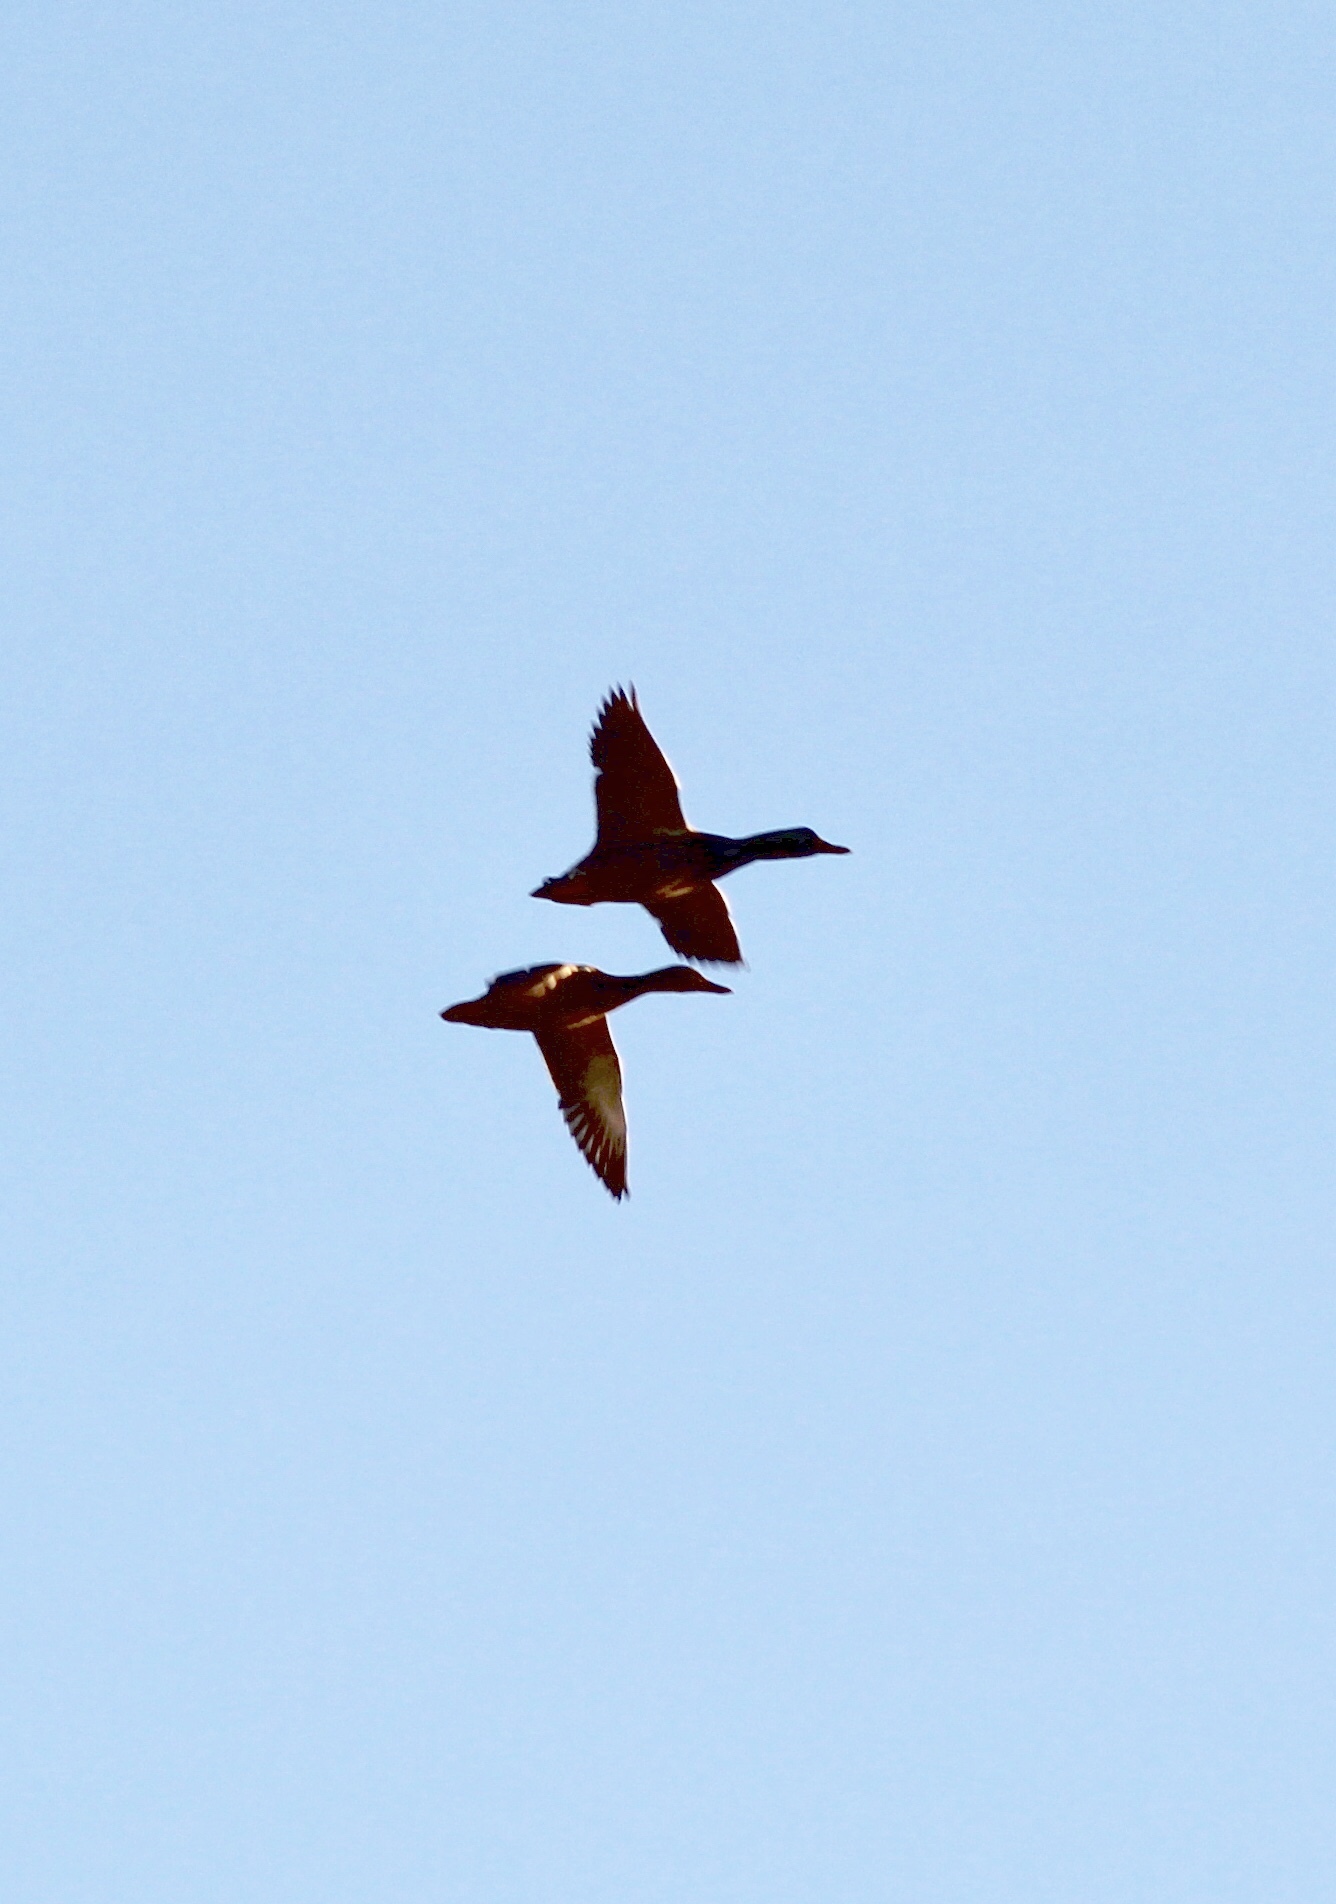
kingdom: Animalia
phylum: Chordata
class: Aves
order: Anseriformes
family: Anatidae
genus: Anas
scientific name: Anas platyrhynchos
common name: Mallard
